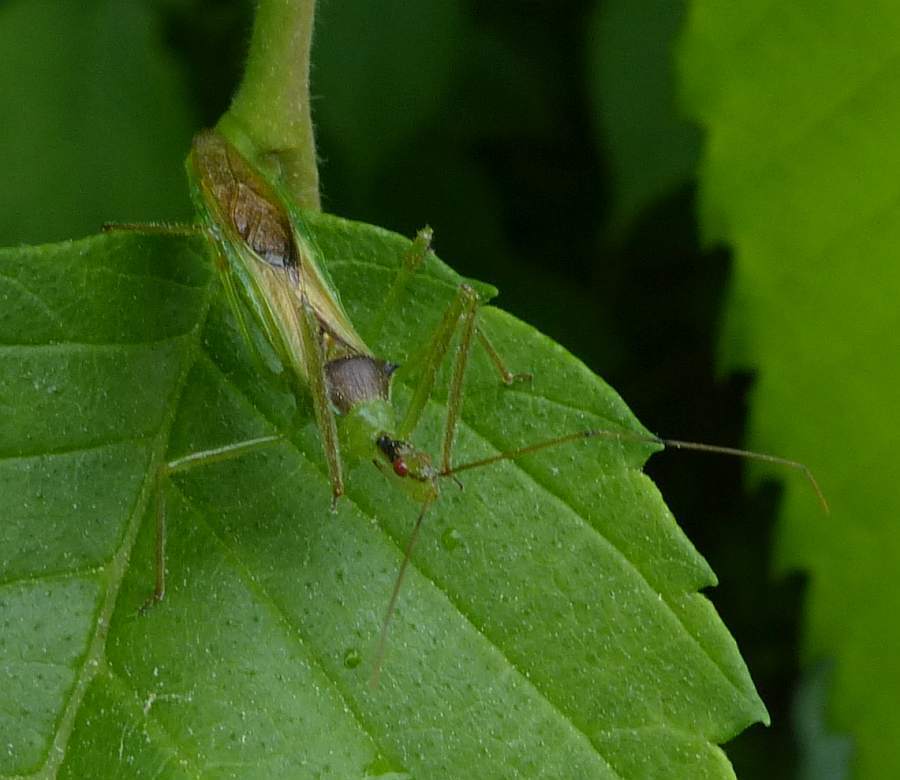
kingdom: Animalia
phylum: Arthropoda
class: Insecta
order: Hemiptera
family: Reduviidae
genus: Zelus
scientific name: Zelus luridus
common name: Pale green assassin bug
